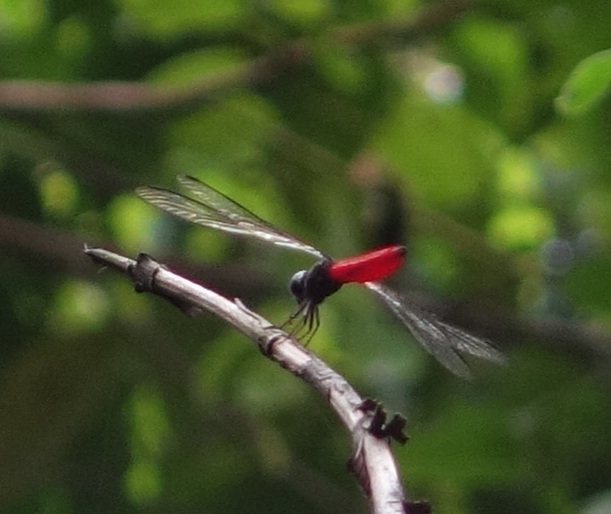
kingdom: Animalia
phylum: Arthropoda
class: Insecta
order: Odonata
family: Libellulidae
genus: Orthetrum
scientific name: Orthetrum chrysis
